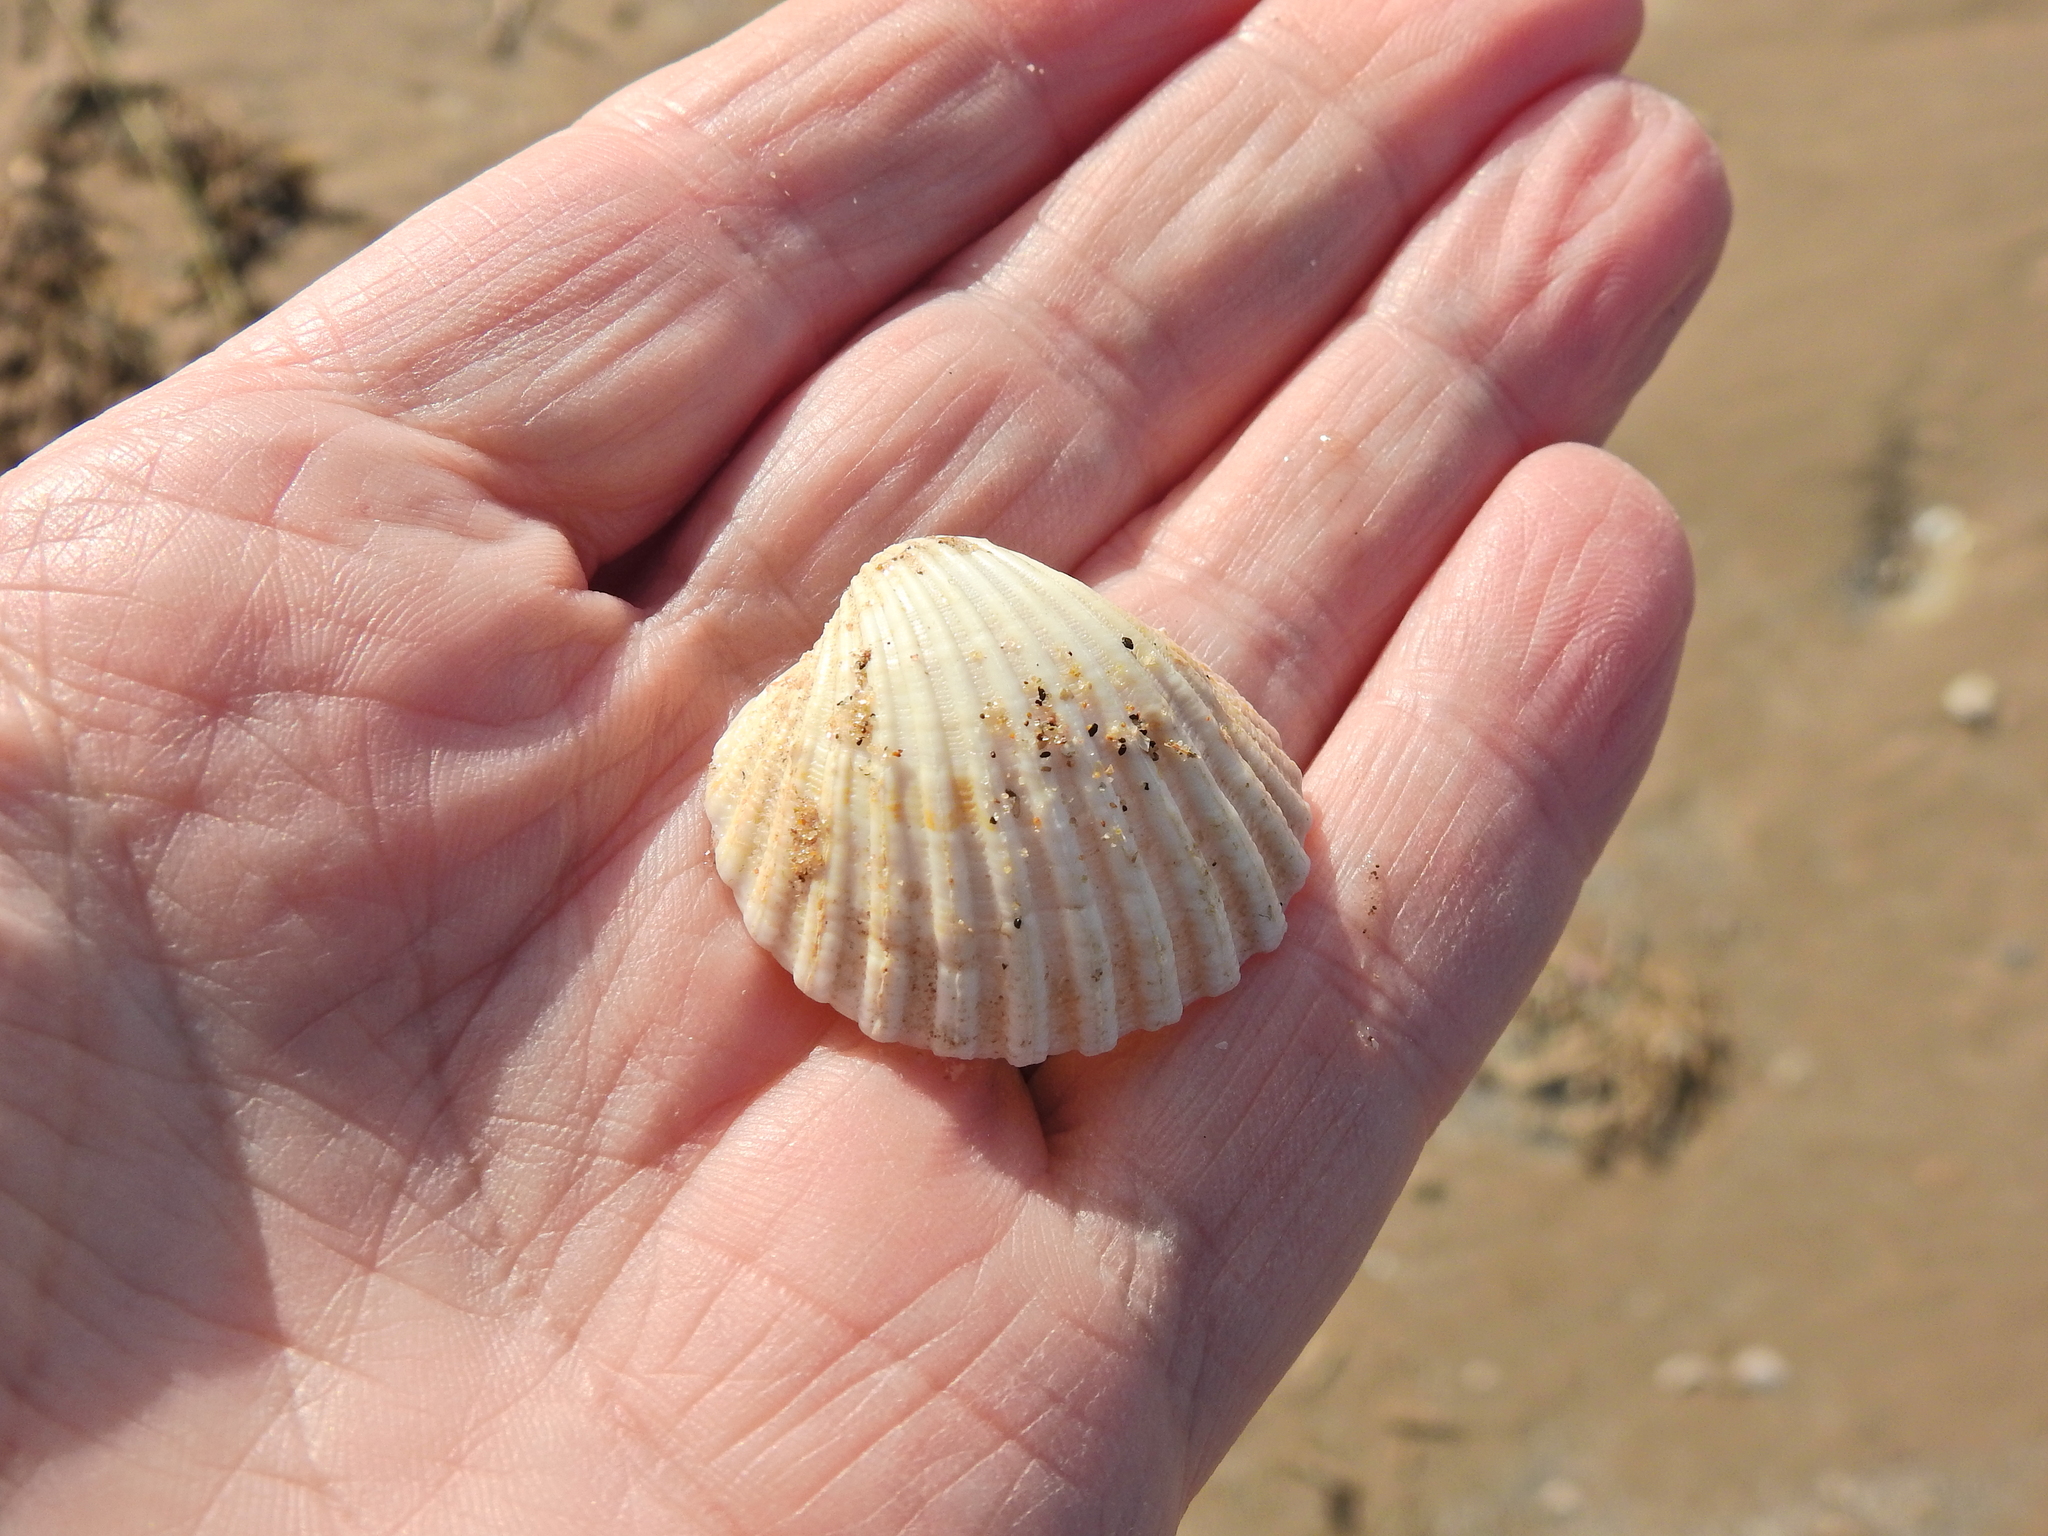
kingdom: Animalia
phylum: Mollusca
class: Bivalvia
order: Cardiida
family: Cardiidae
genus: Acanthocardia
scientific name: Acanthocardia echinata
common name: Prickly cockle
